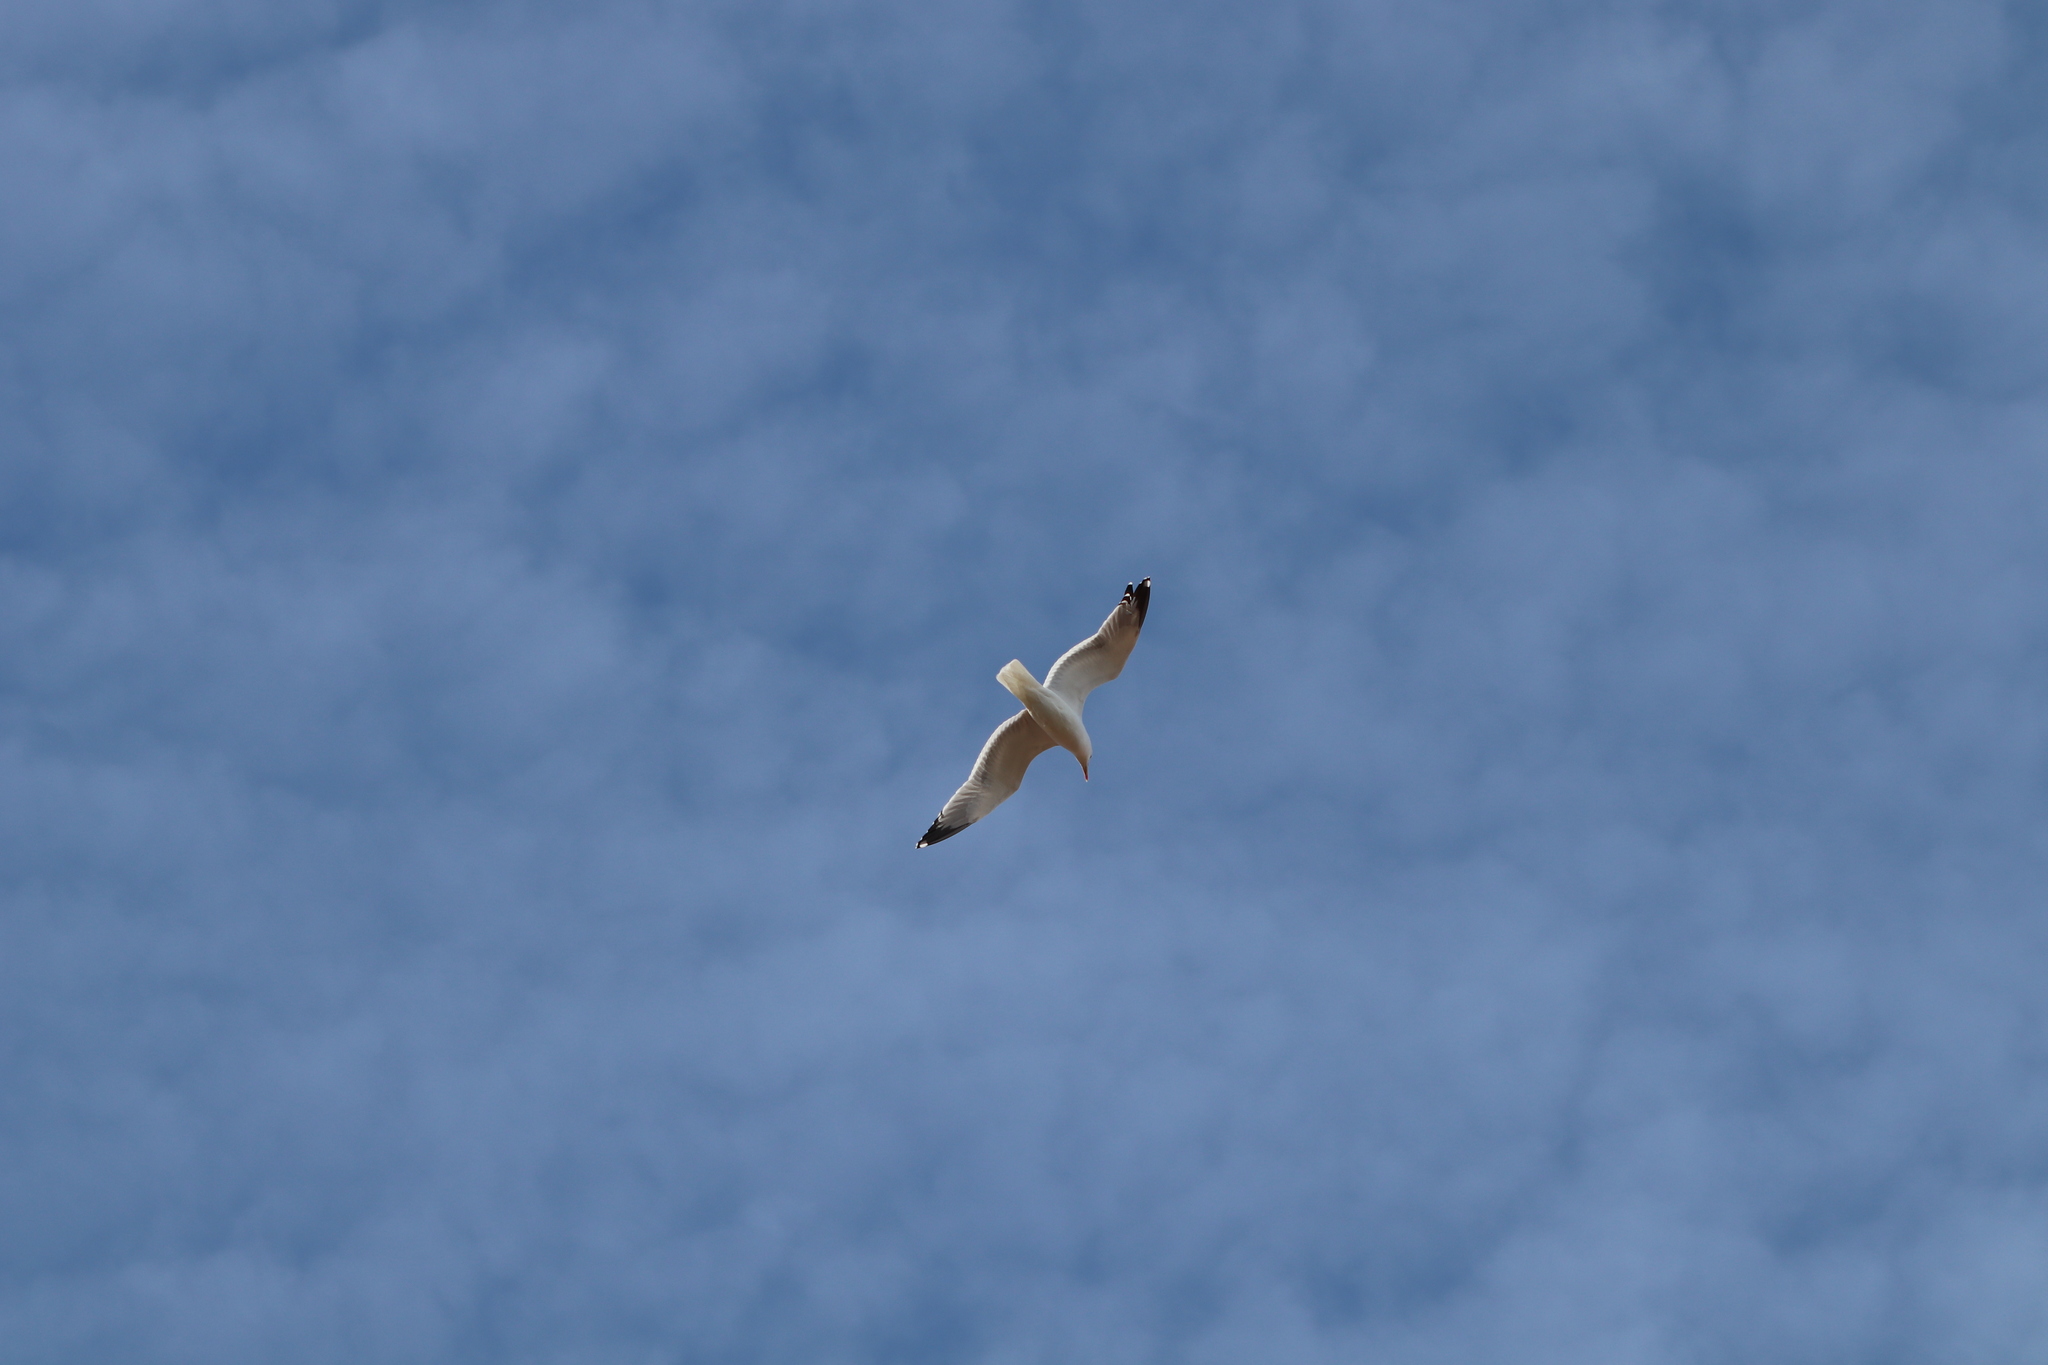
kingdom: Animalia
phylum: Chordata
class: Aves
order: Charadriiformes
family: Laridae
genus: Larus
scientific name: Larus michahellis
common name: Yellow-legged gull
